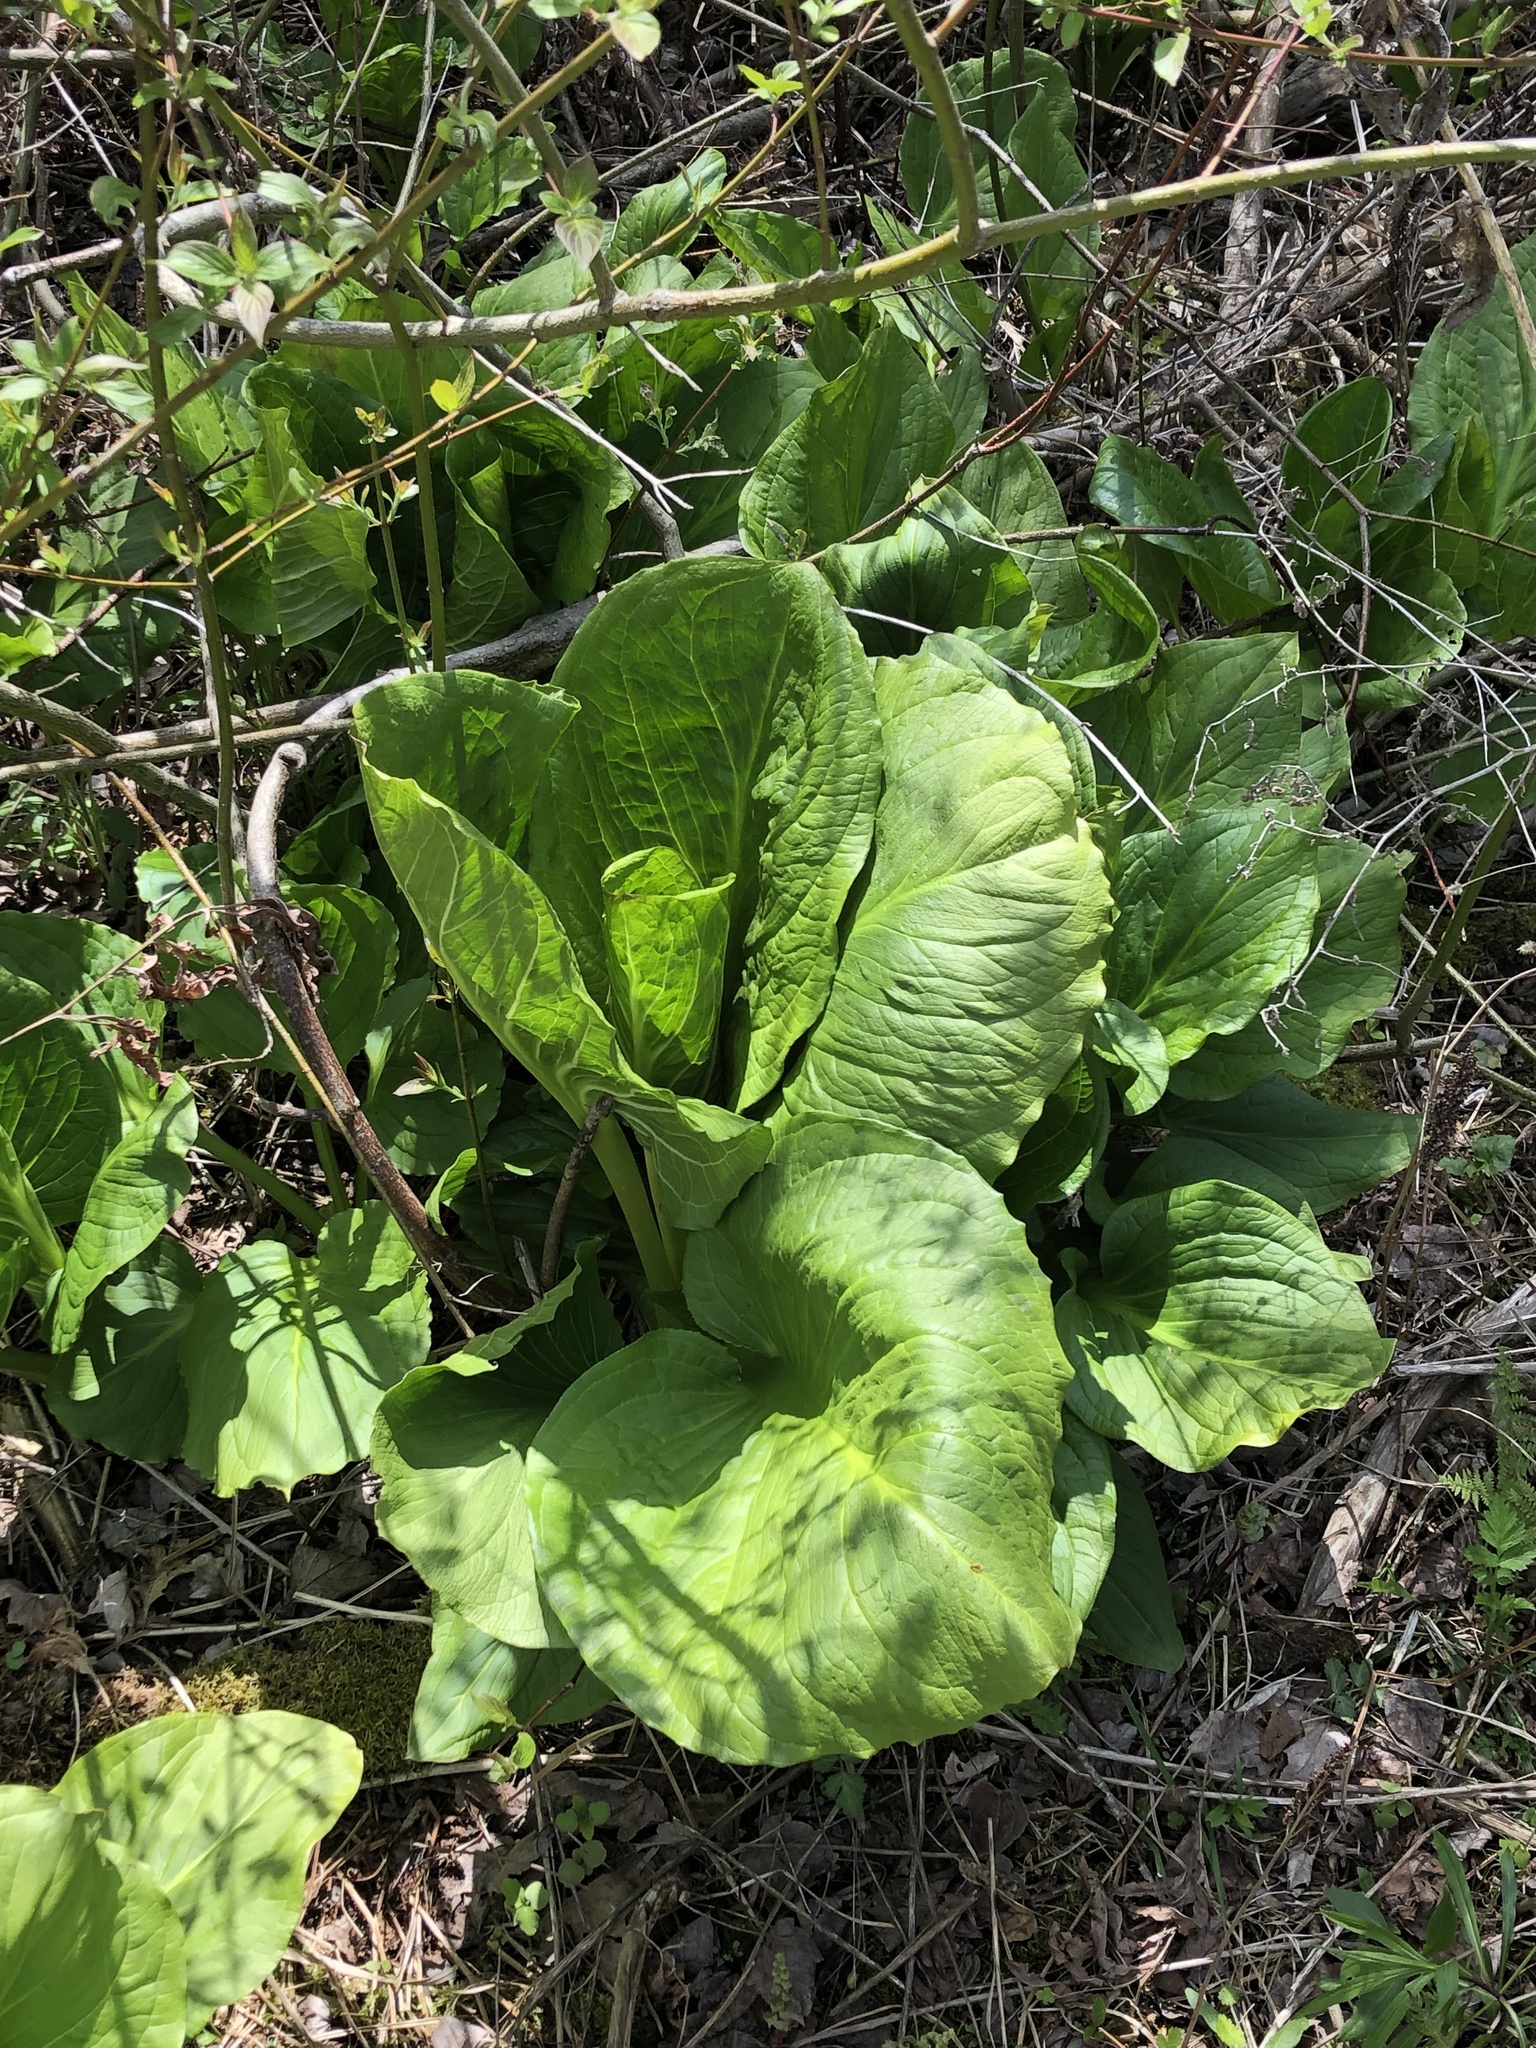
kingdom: Plantae
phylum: Tracheophyta
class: Liliopsida
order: Alismatales
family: Araceae
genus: Symplocarpus
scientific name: Symplocarpus foetidus
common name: Eastern skunk cabbage
